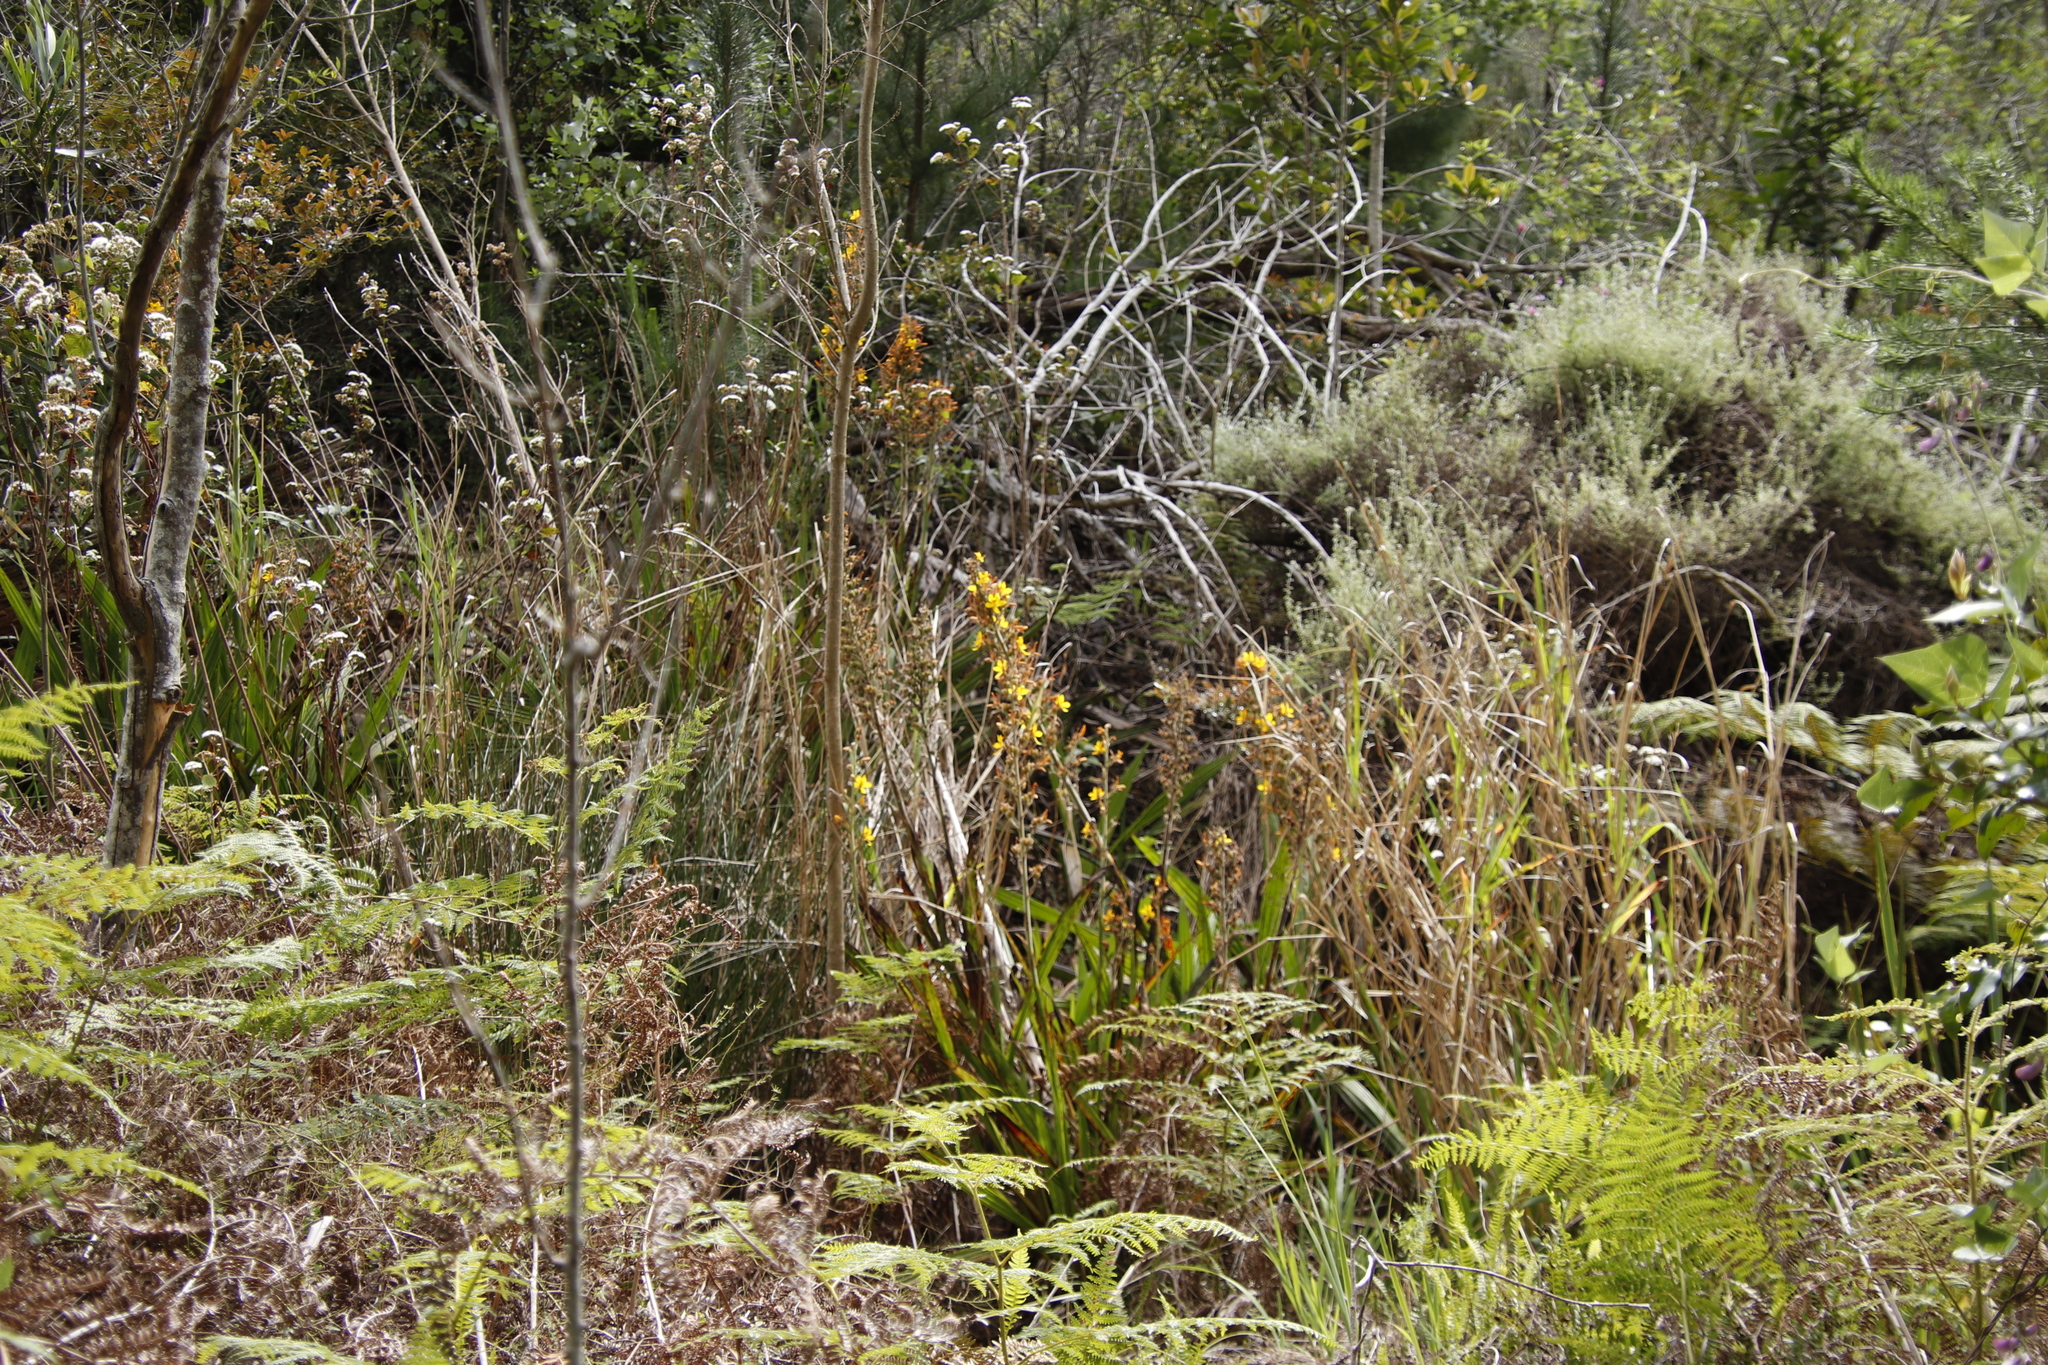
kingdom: Plantae
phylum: Tracheophyta
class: Liliopsida
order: Commelinales
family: Haemodoraceae
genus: Wachendorfia
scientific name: Wachendorfia thyrsiflora
